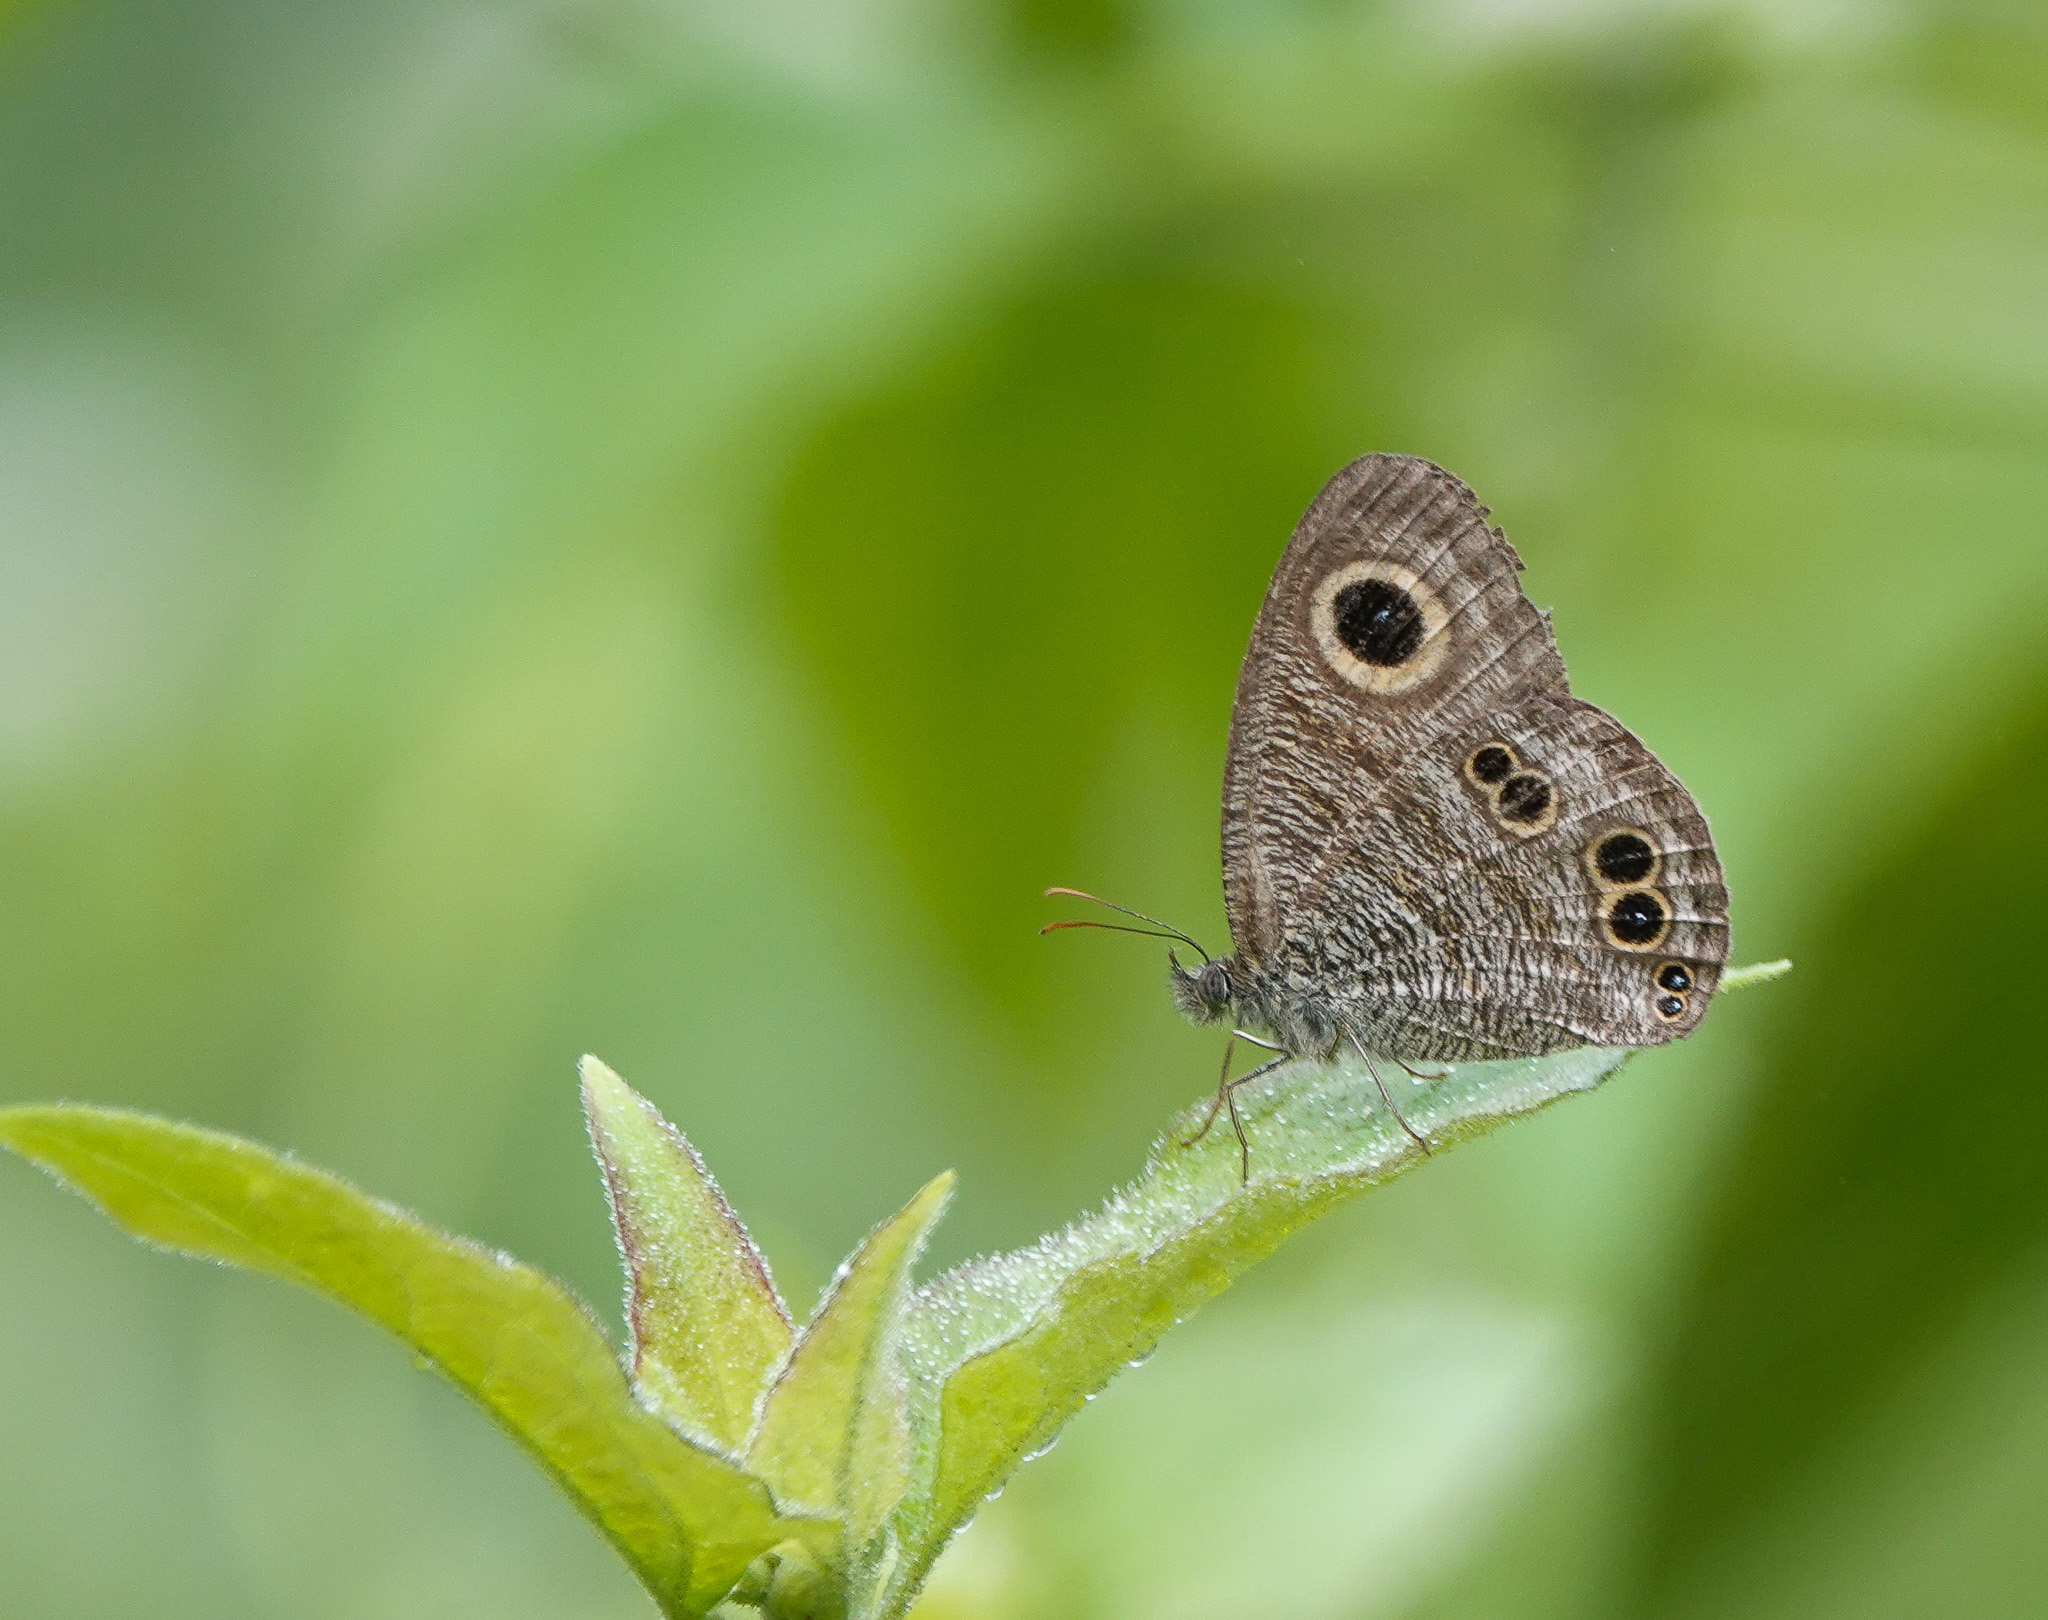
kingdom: Animalia
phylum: Arthropoda
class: Insecta
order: Lepidoptera
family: Nymphalidae
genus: Ypthima
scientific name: Ypthima baldus
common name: Common five-ring
